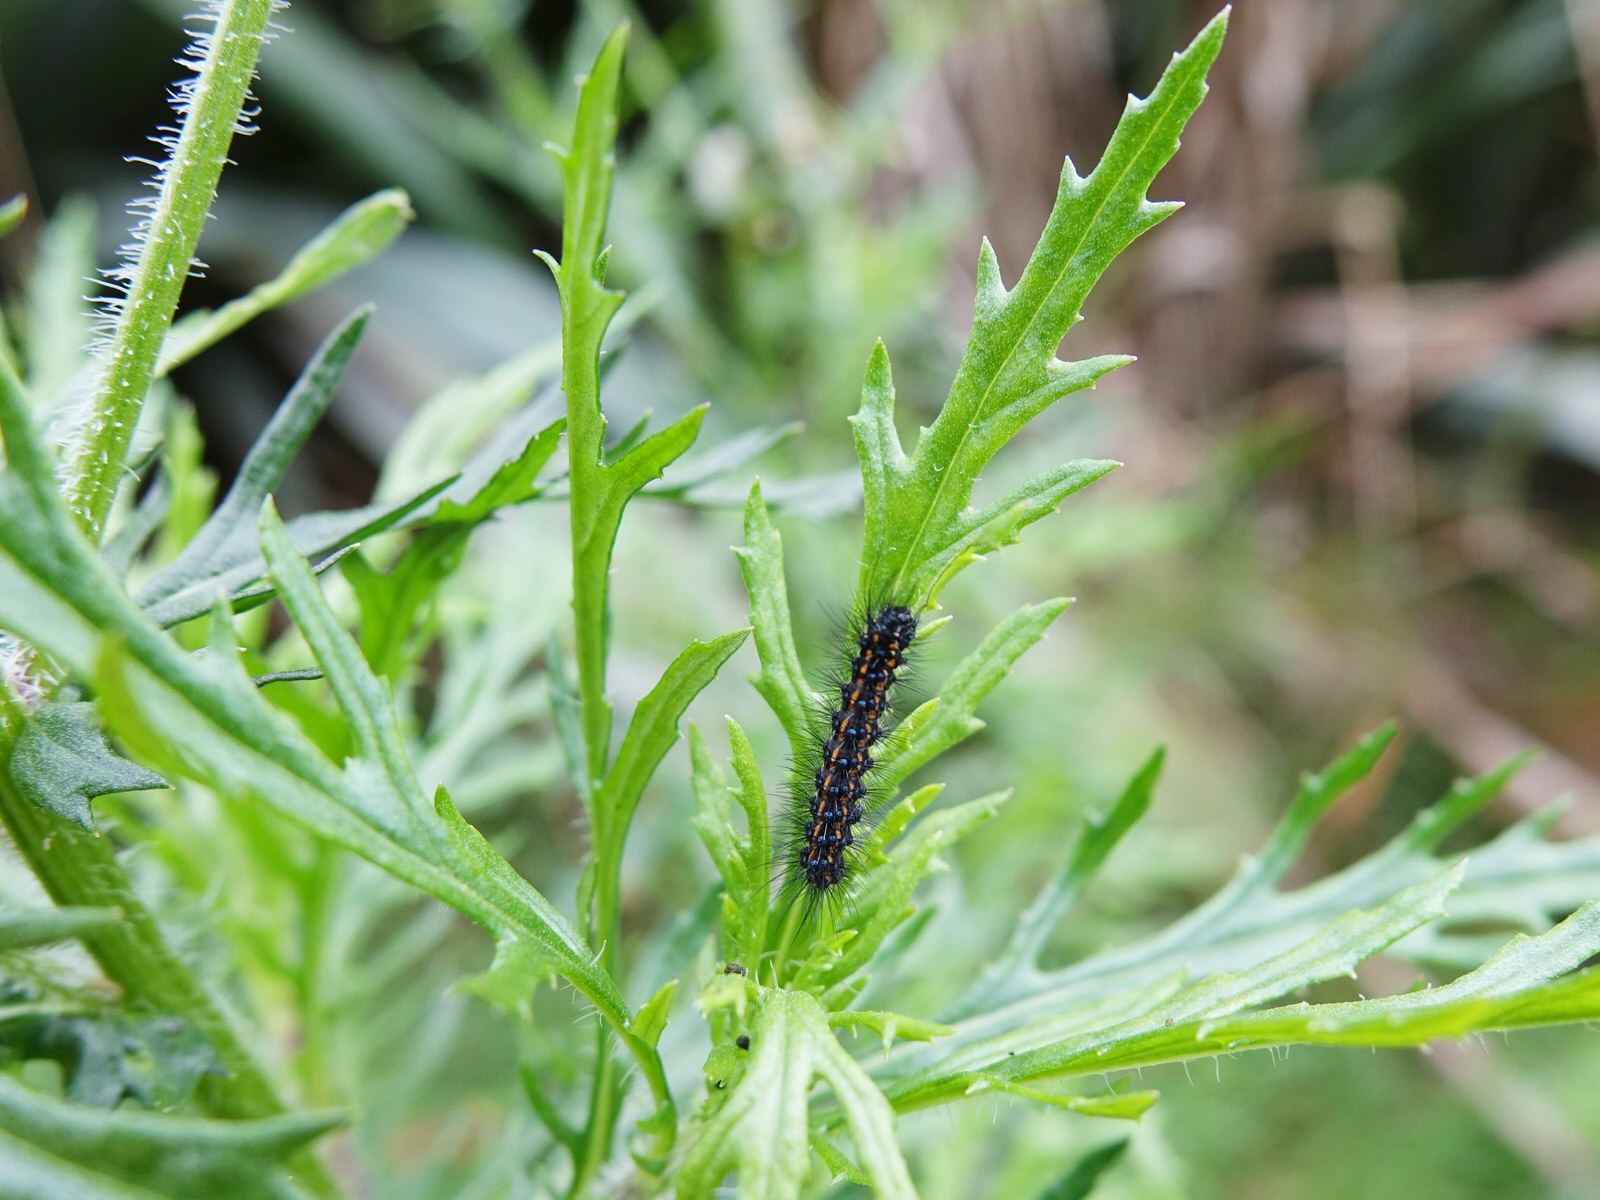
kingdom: Animalia
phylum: Arthropoda
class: Insecta
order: Lepidoptera
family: Erebidae
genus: Nyctemera
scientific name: Nyctemera annulatum
